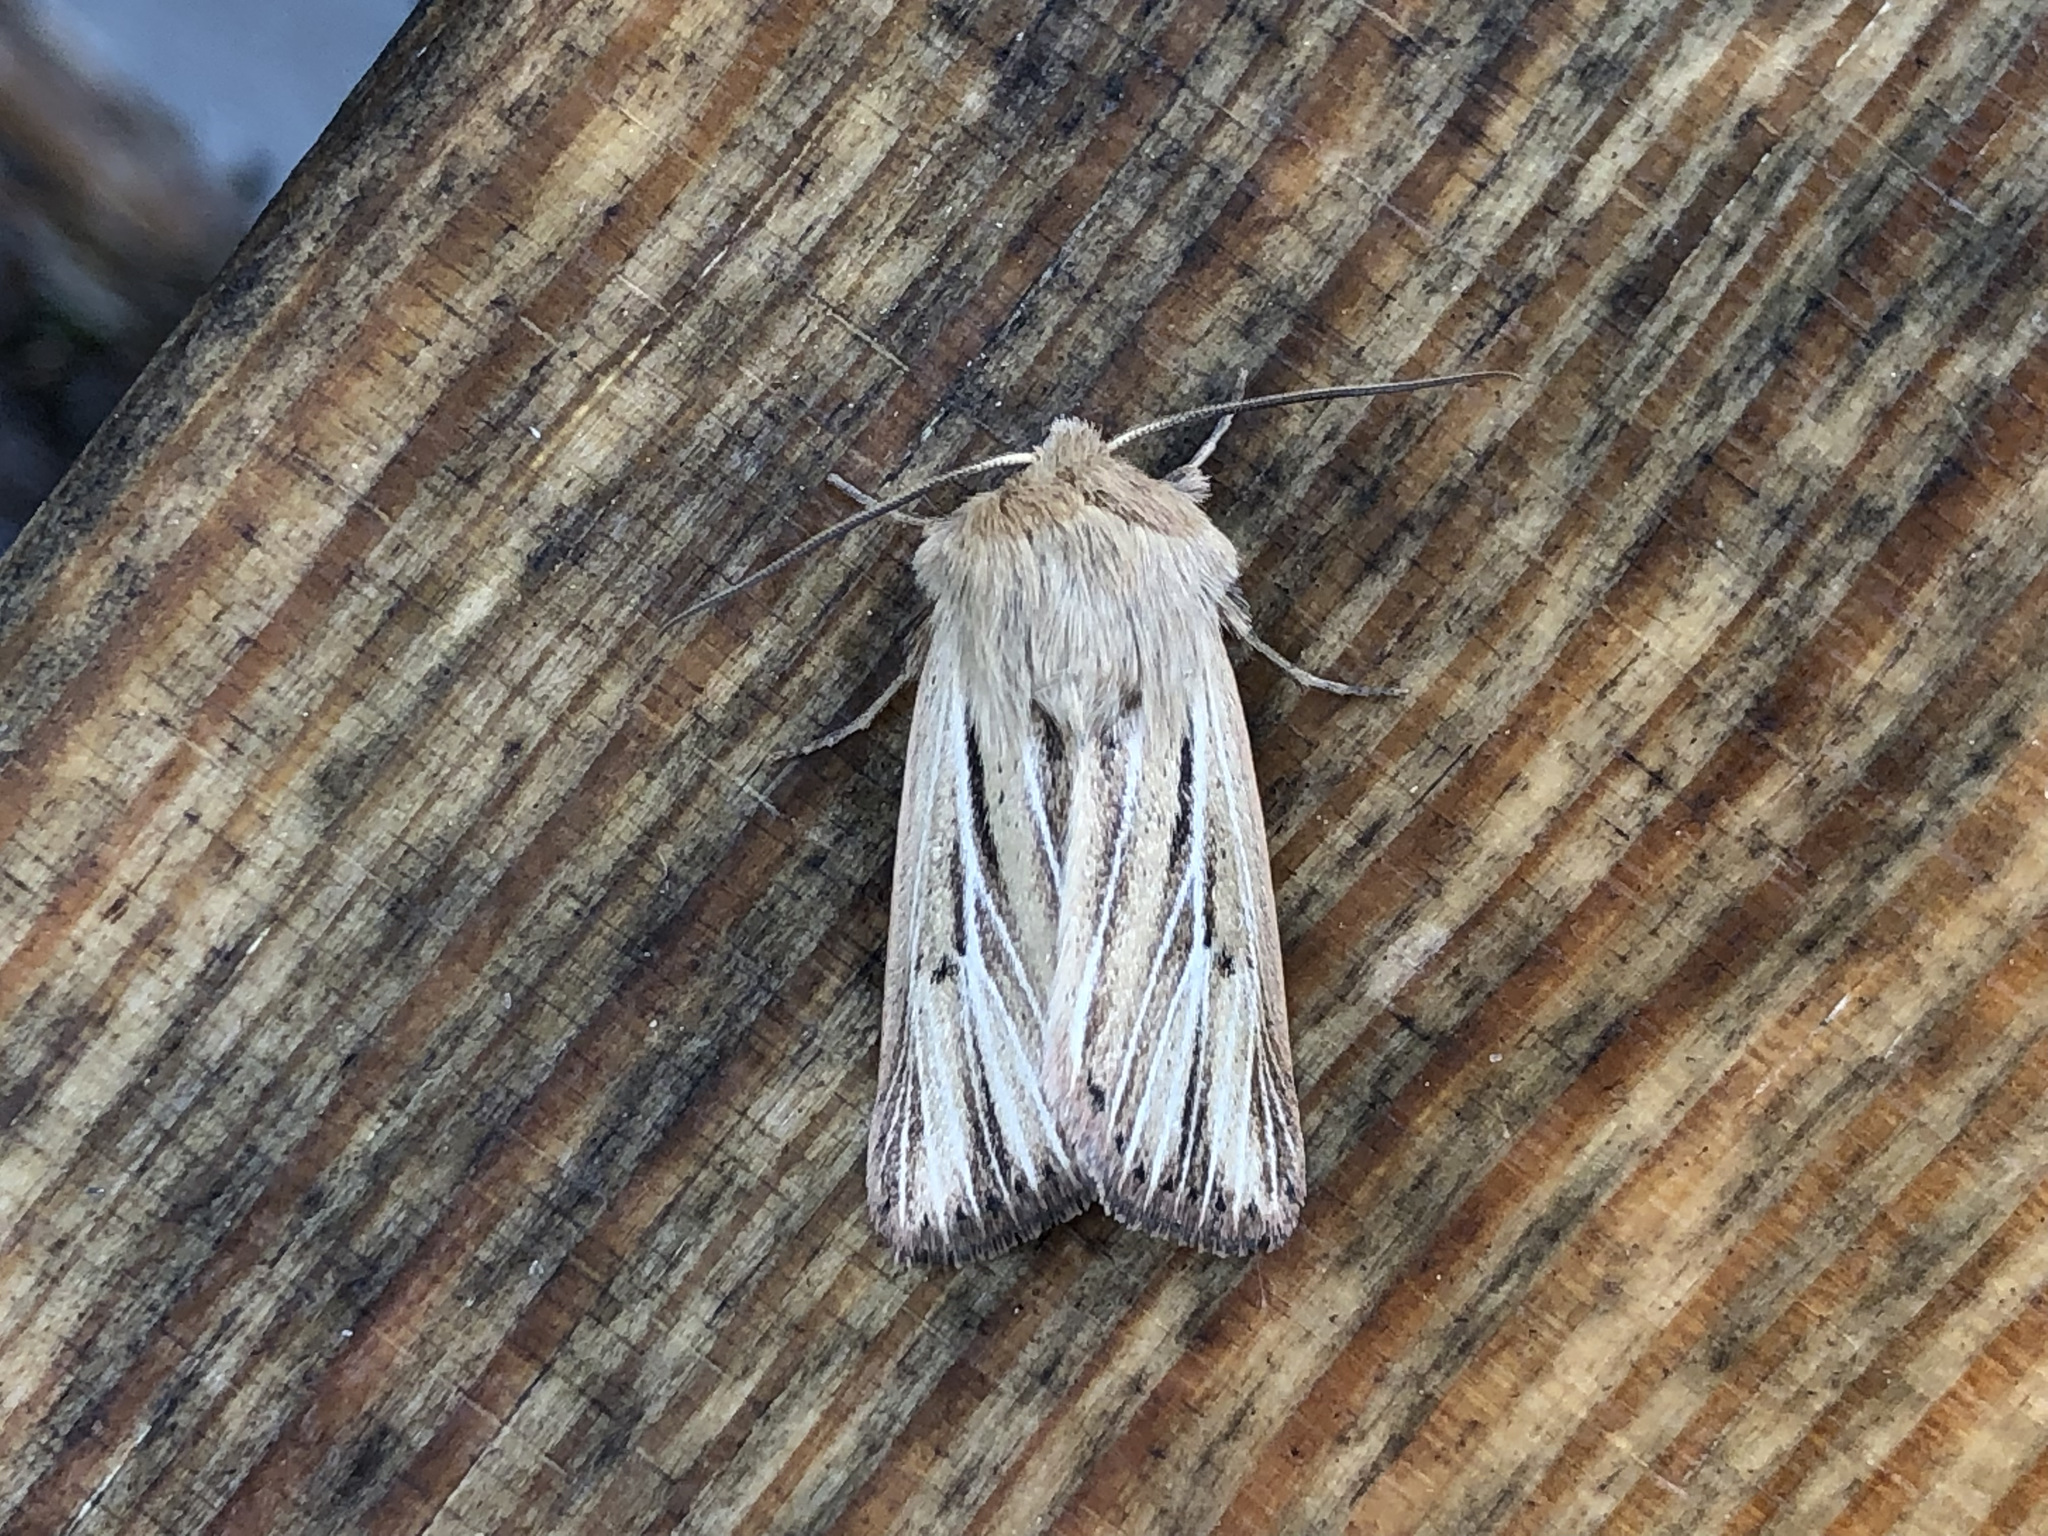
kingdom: Animalia
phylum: Arthropoda
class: Insecta
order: Lepidoptera
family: Noctuidae
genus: Mythimna
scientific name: Mythimna anderreggii
